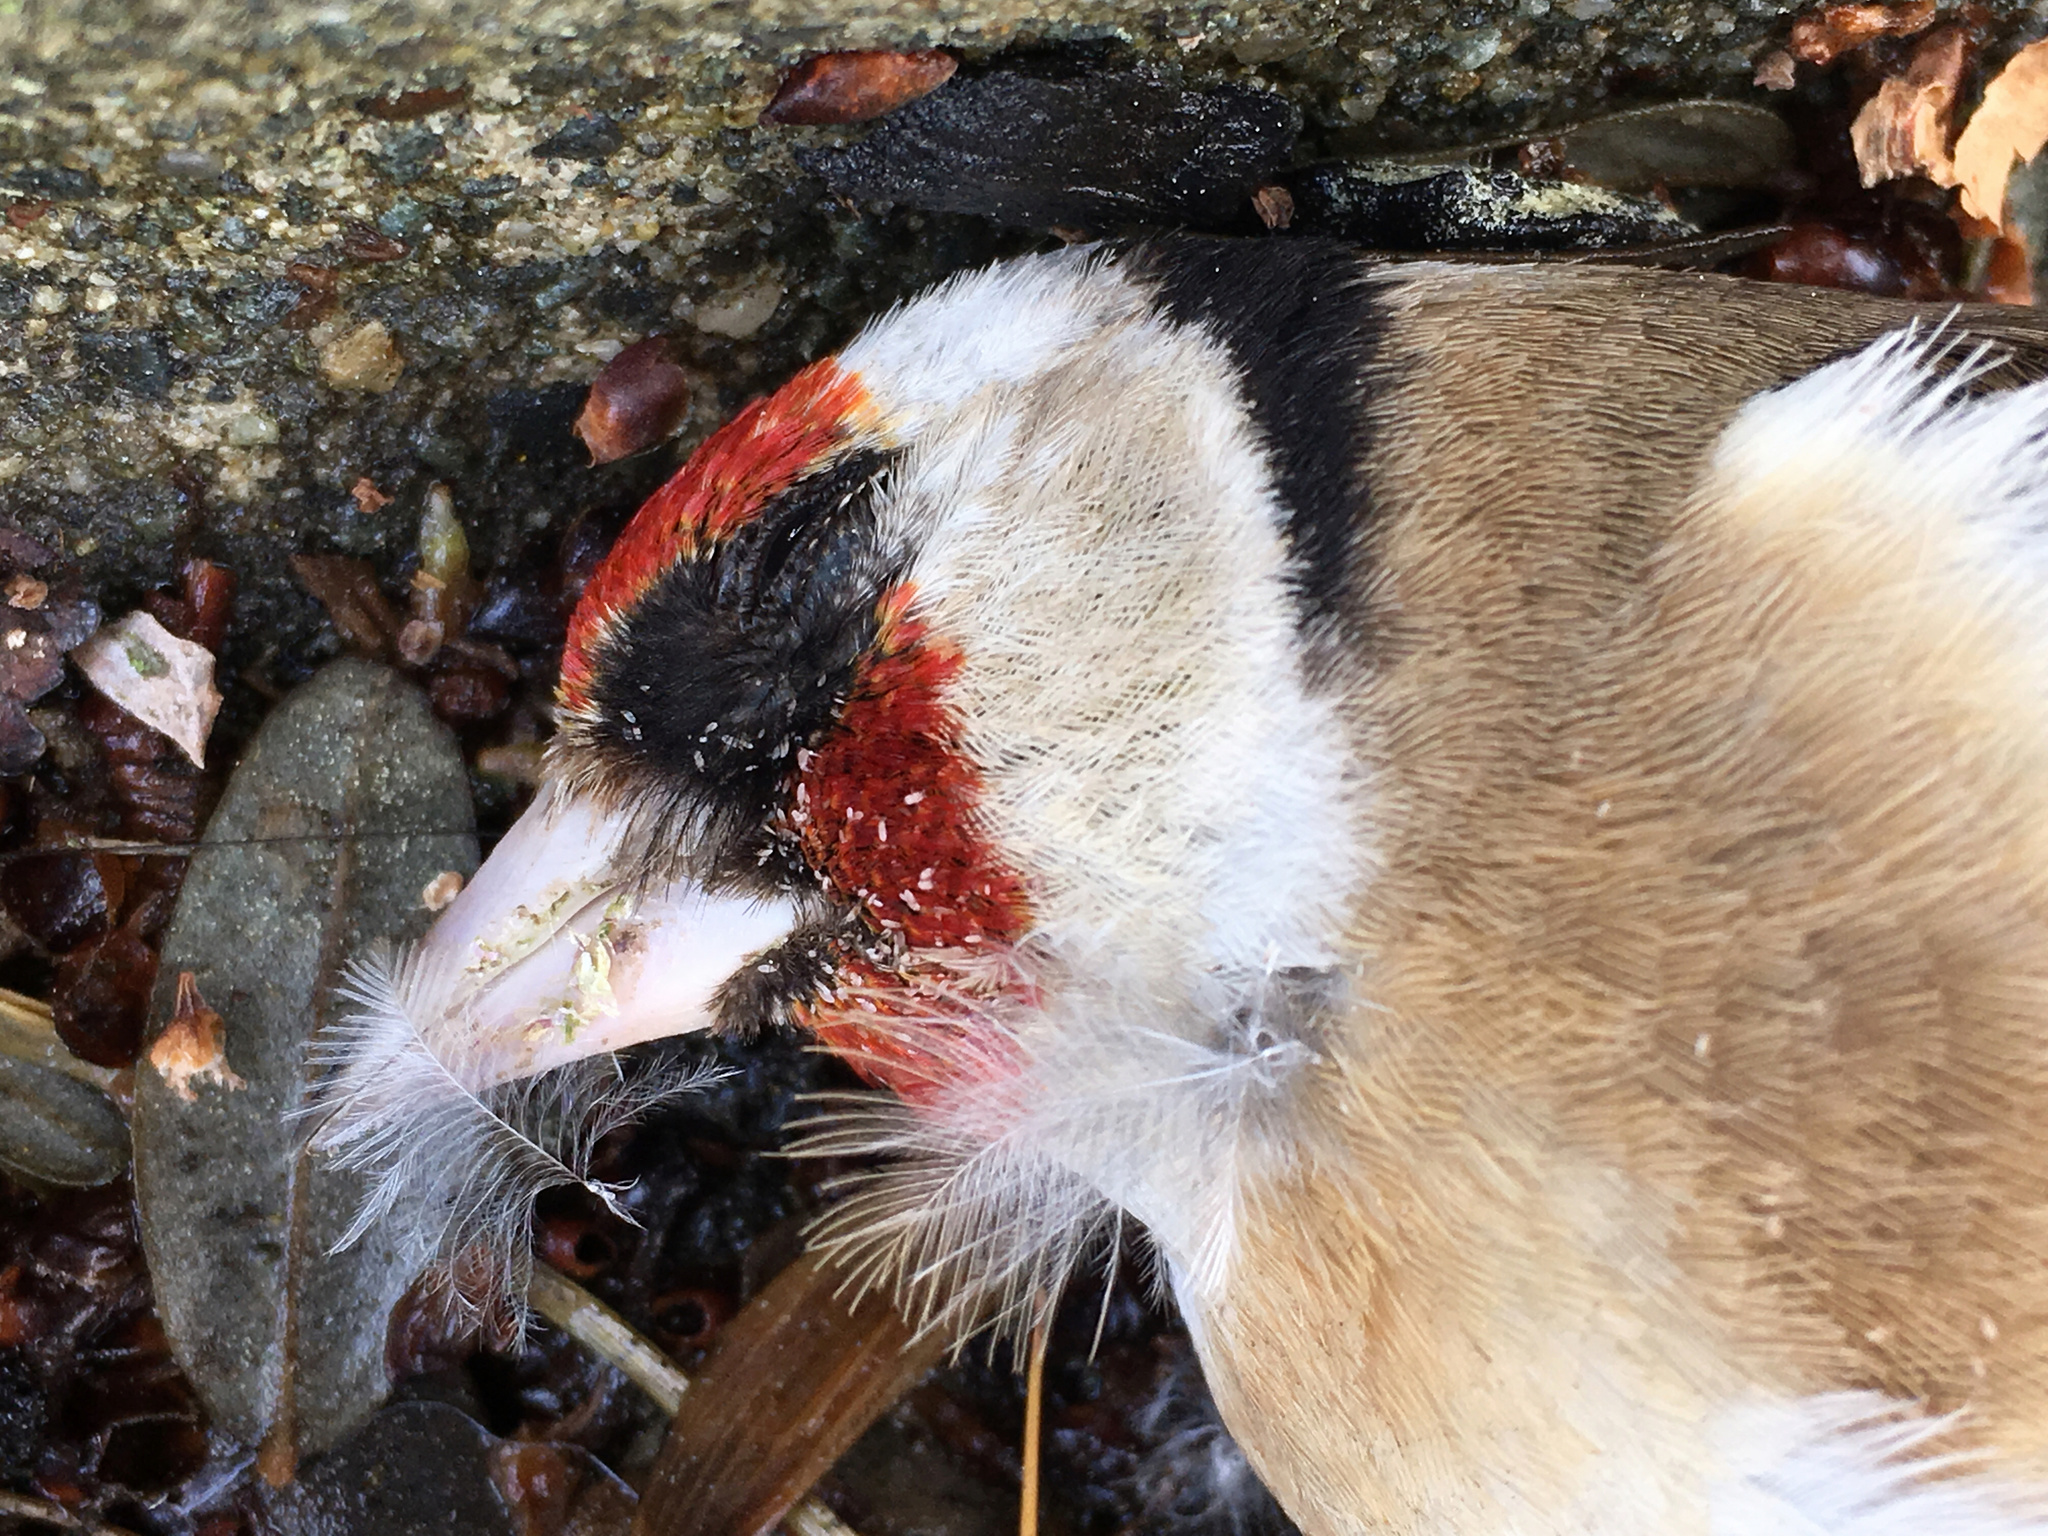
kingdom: Animalia
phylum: Chordata
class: Aves
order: Passeriformes
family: Fringillidae
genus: Carduelis
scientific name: Carduelis carduelis
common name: European goldfinch
